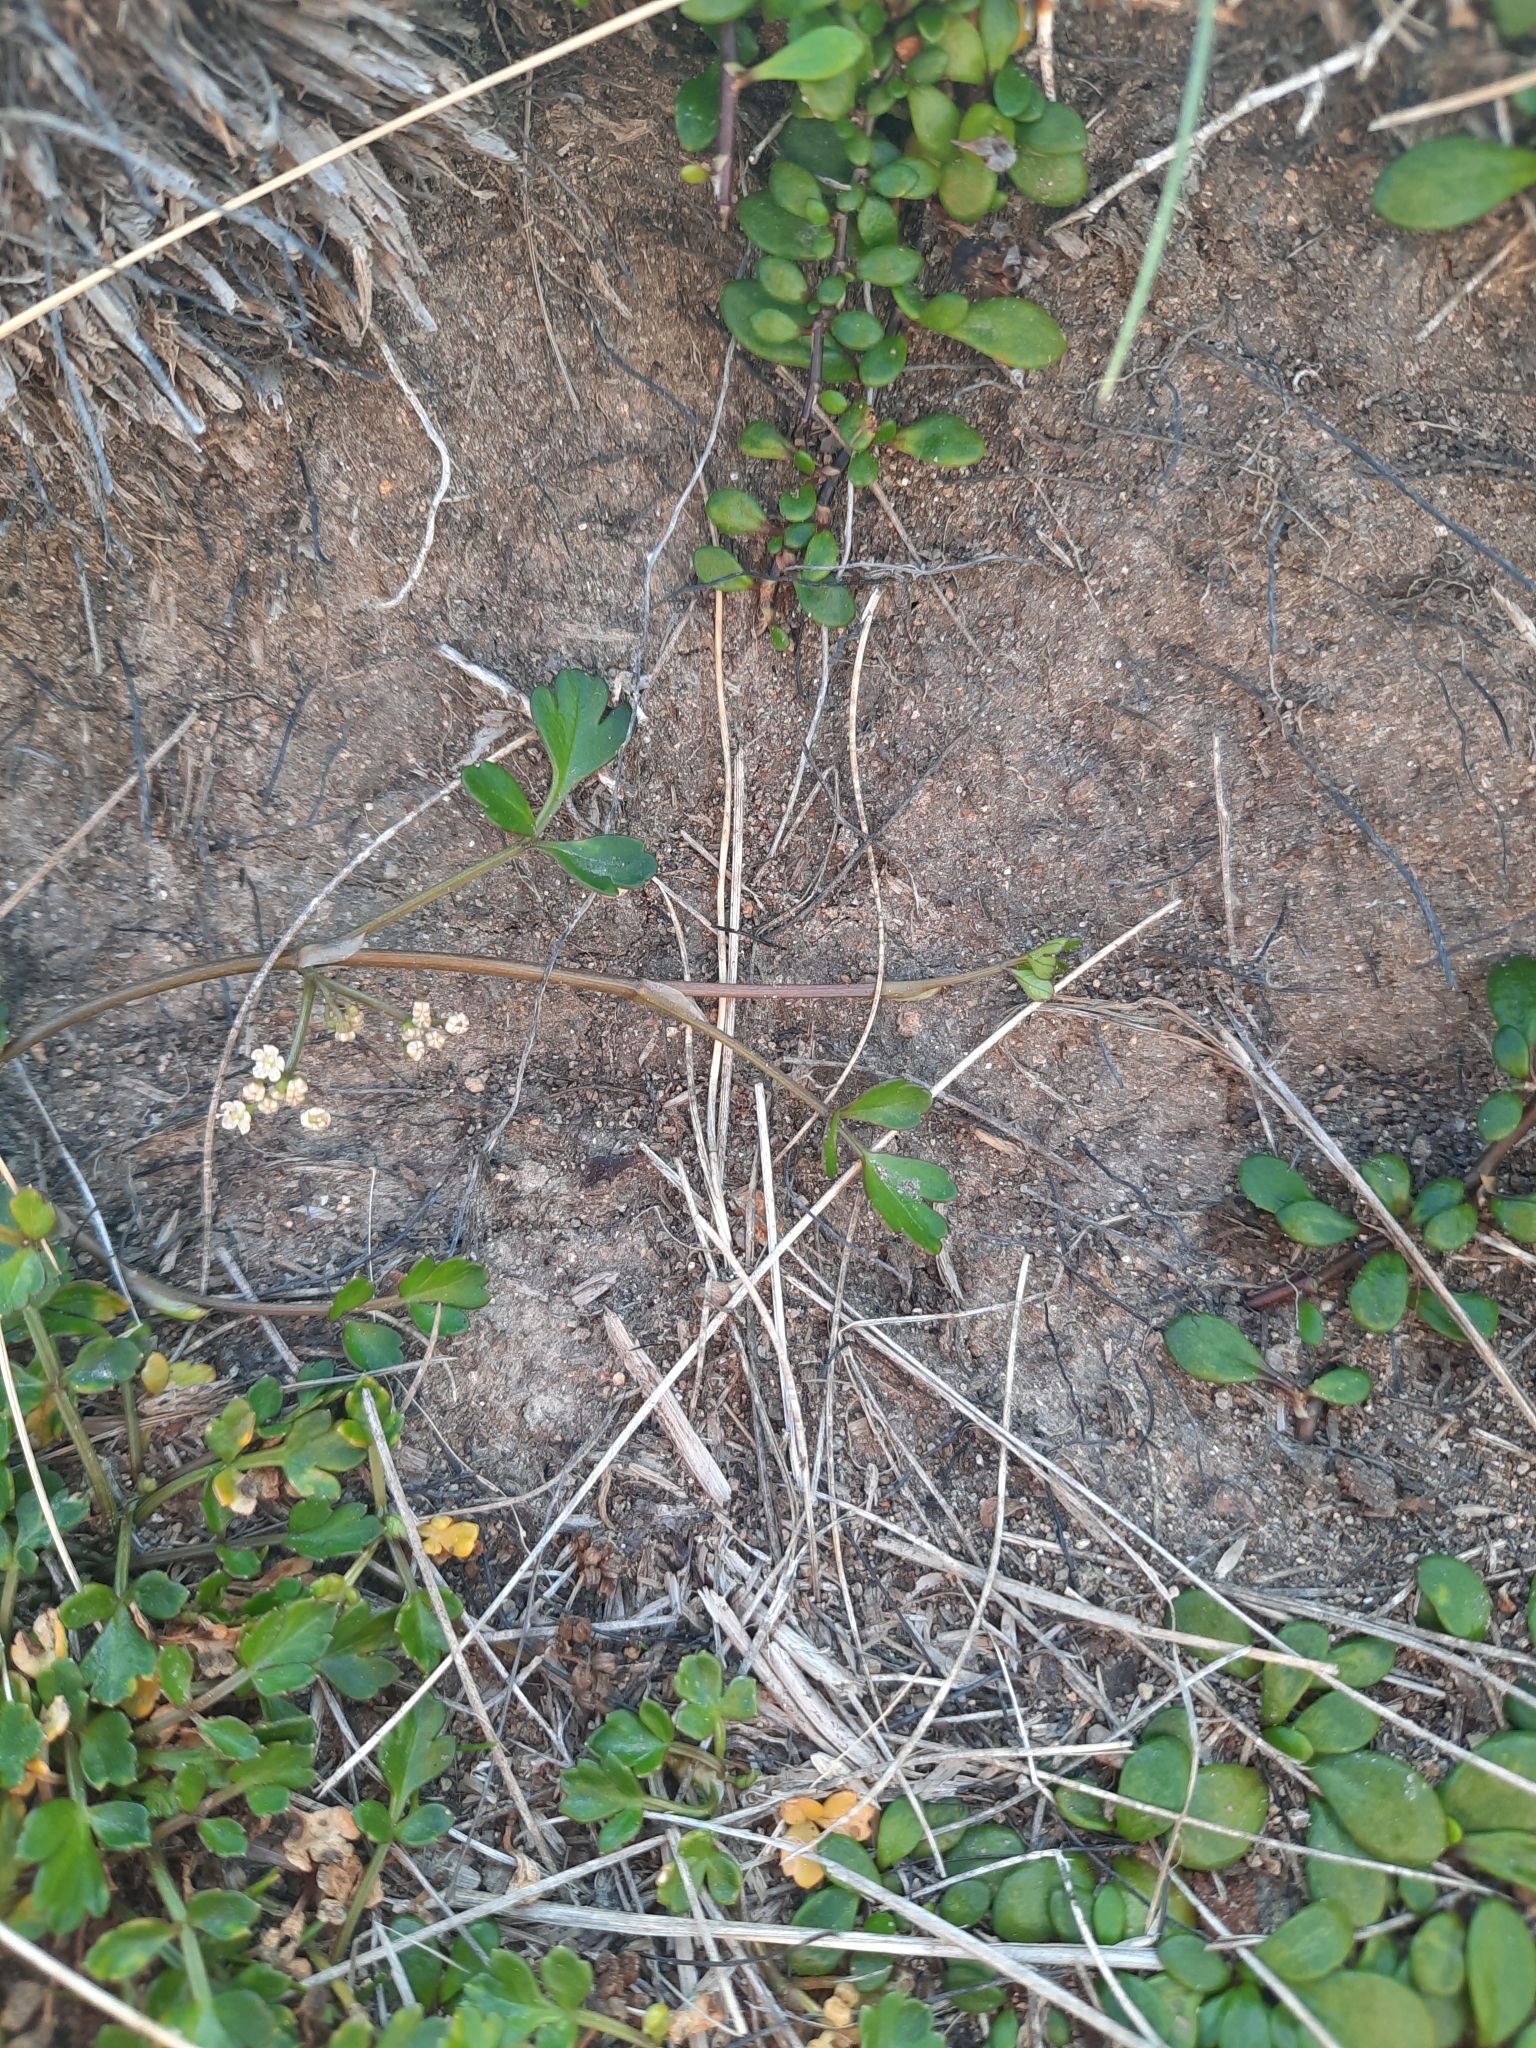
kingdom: Plantae
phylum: Tracheophyta
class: Magnoliopsida
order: Apiales
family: Apiaceae
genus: Apium
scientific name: Apium prostratum
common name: Prostrate marshwort
